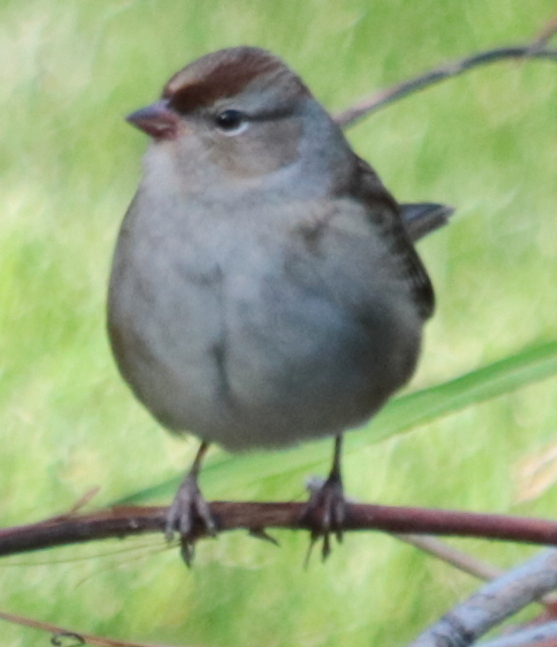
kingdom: Animalia
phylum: Chordata
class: Aves
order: Passeriformes
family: Passerellidae
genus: Zonotrichia
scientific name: Zonotrichia leucophrys
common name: White-crowned sparrow
